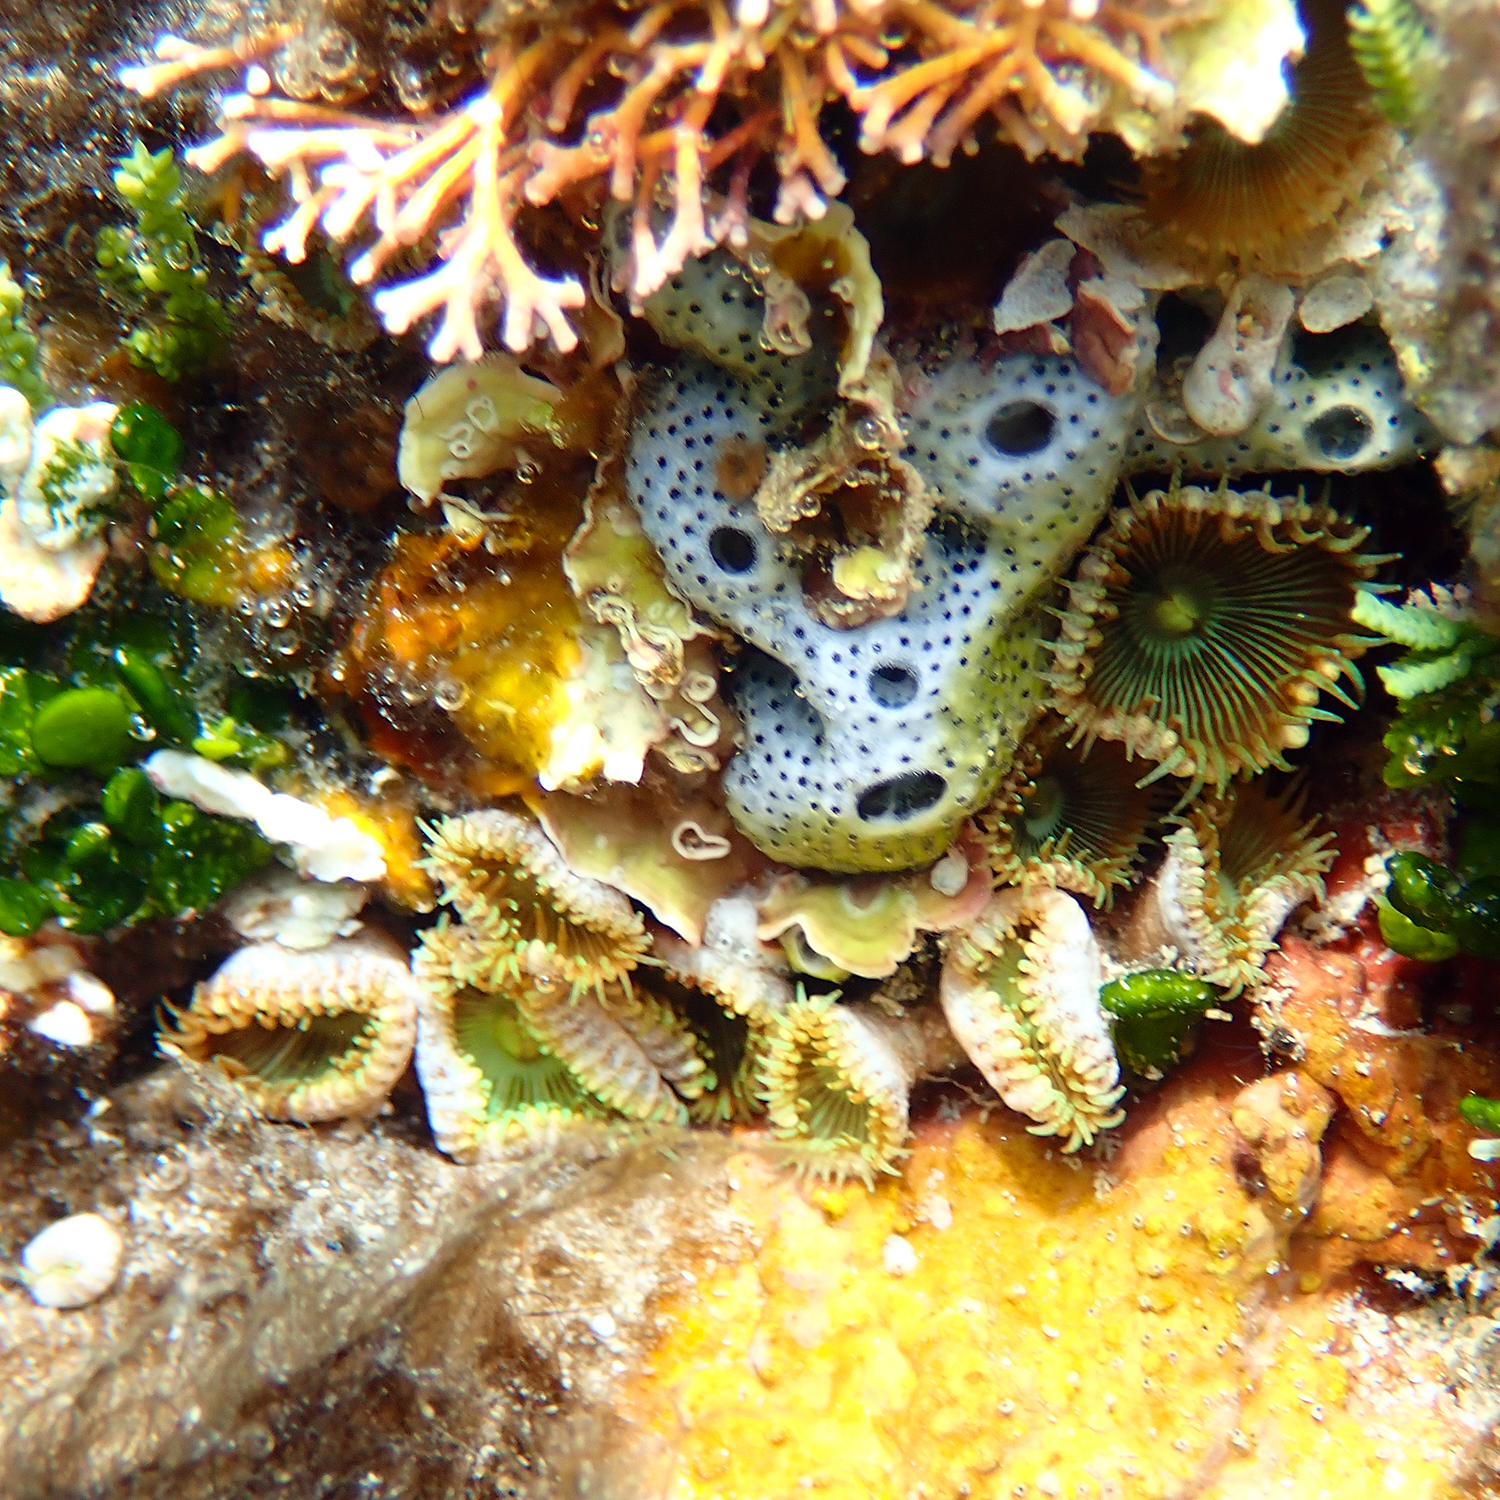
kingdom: Animalia
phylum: Cnidaria
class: Anthozoa
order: Zoantharia
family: Sphenopidae
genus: Palythoa
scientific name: Palythoa mutuki
